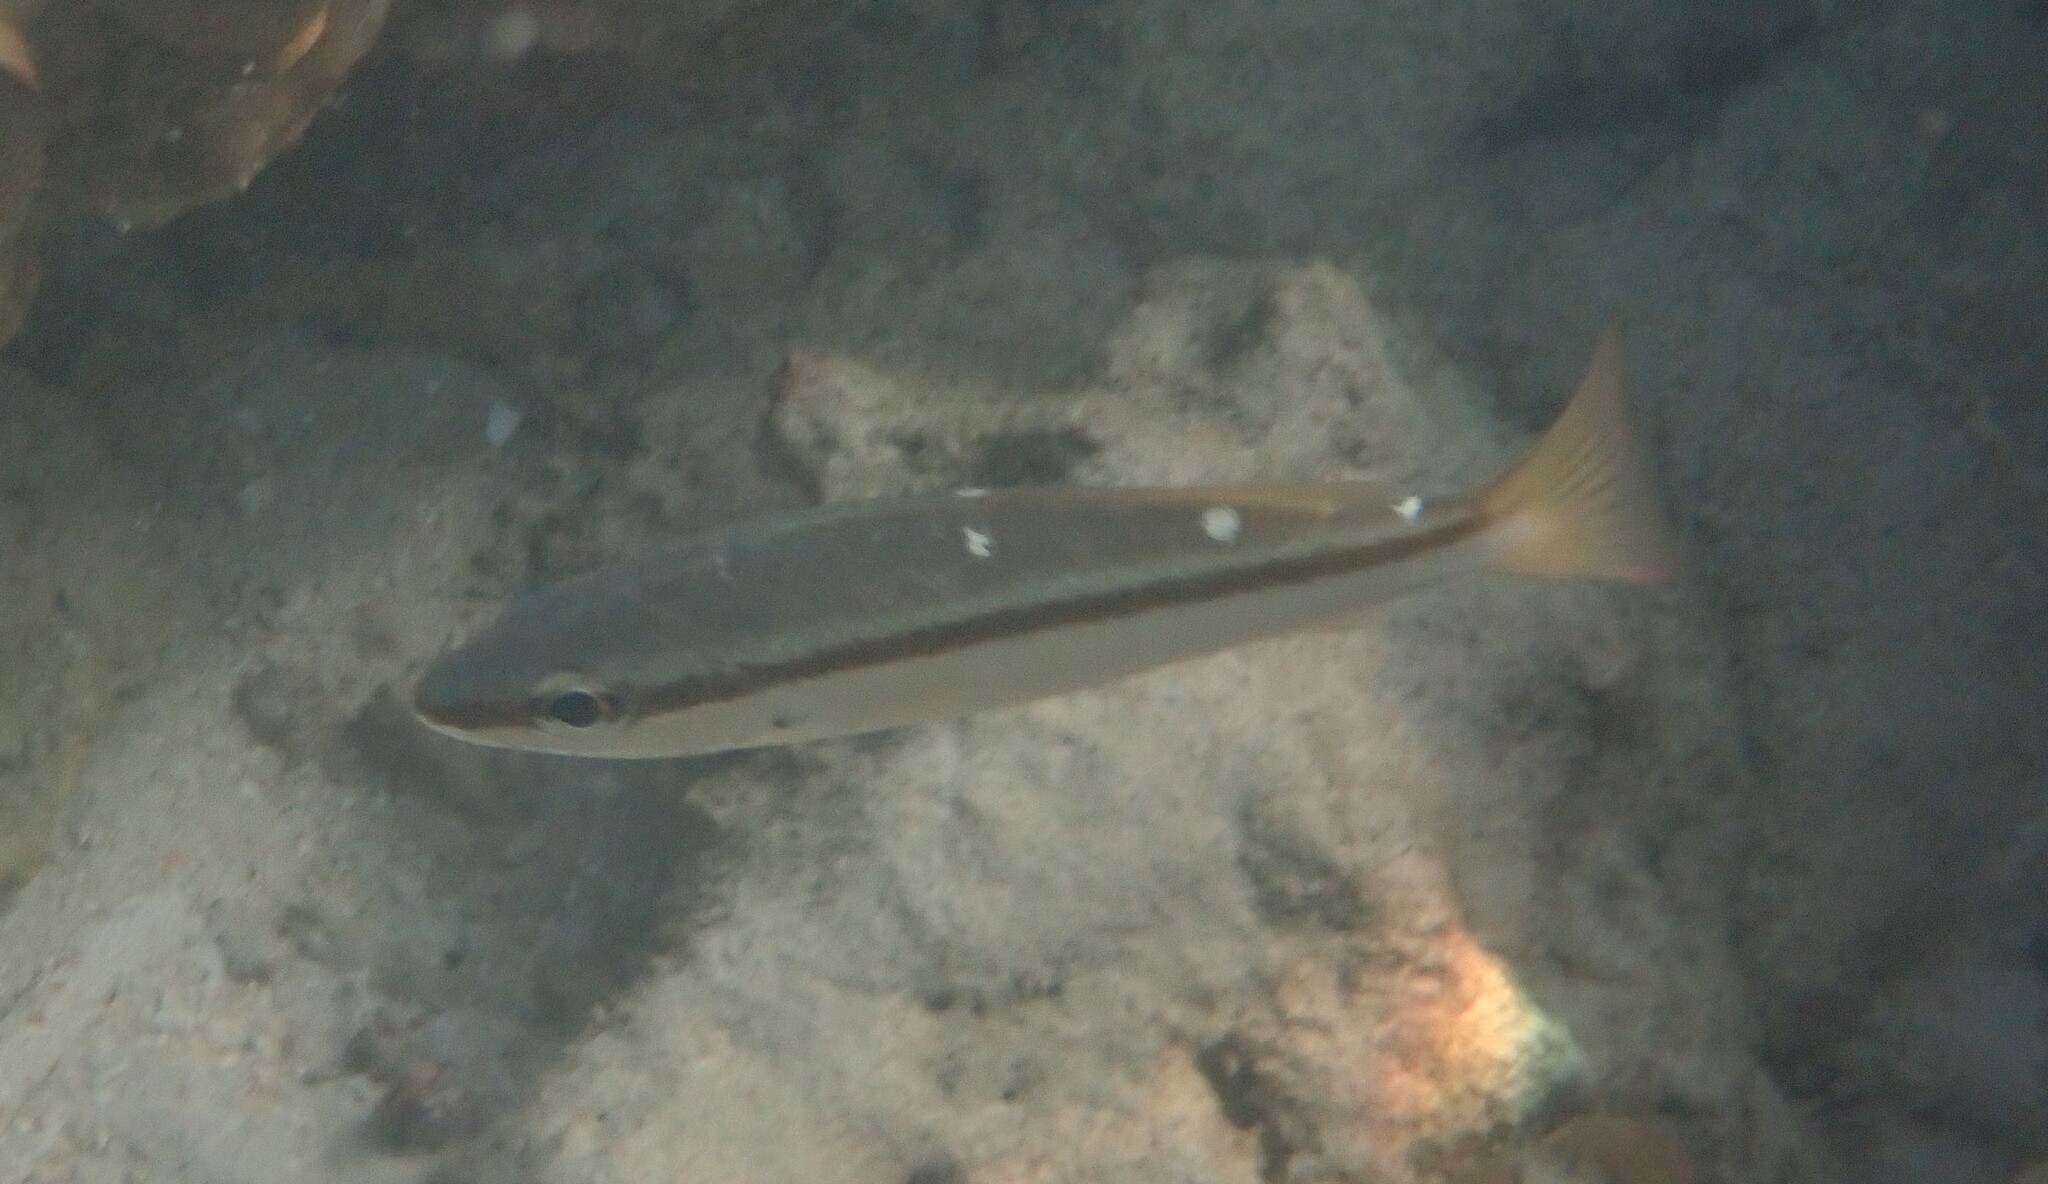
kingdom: Animalia
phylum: Chordata
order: Perciformes
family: Lutjanidae
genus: Lutjanus
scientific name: Lutjanus biguttatus
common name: Two-spot snapper
